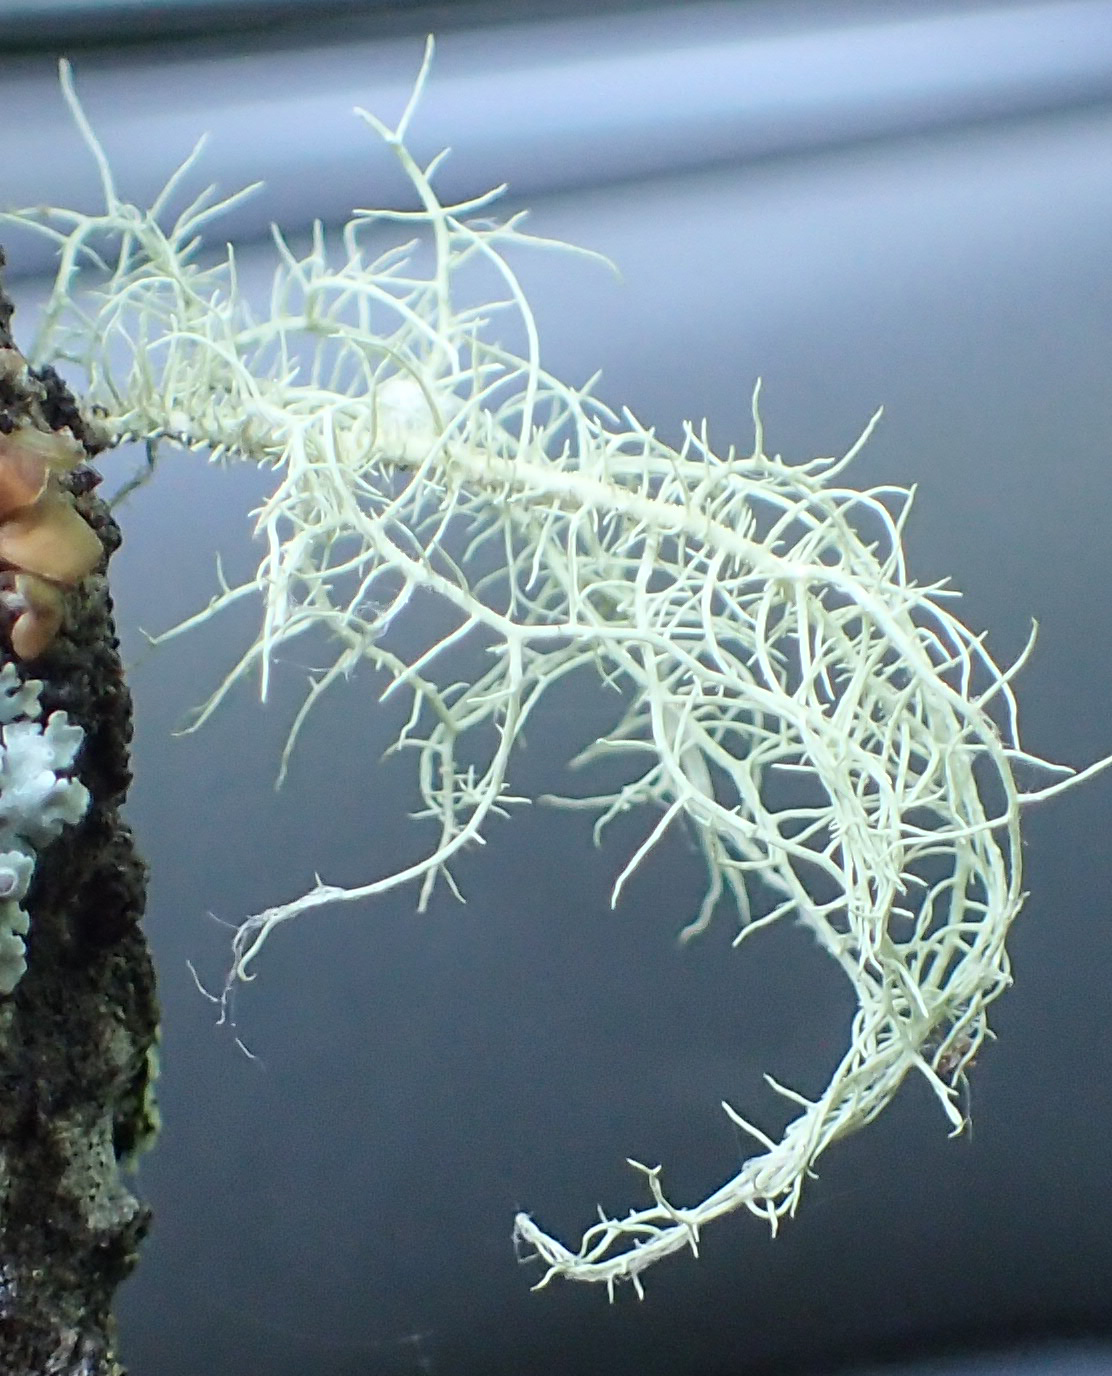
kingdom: Fungi
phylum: Ascomycota
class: Lecanoromycetes
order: Lecanorales
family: Parmeliaceae
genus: Alectoria
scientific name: Alectoria sarmentosa
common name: Witch's hair
